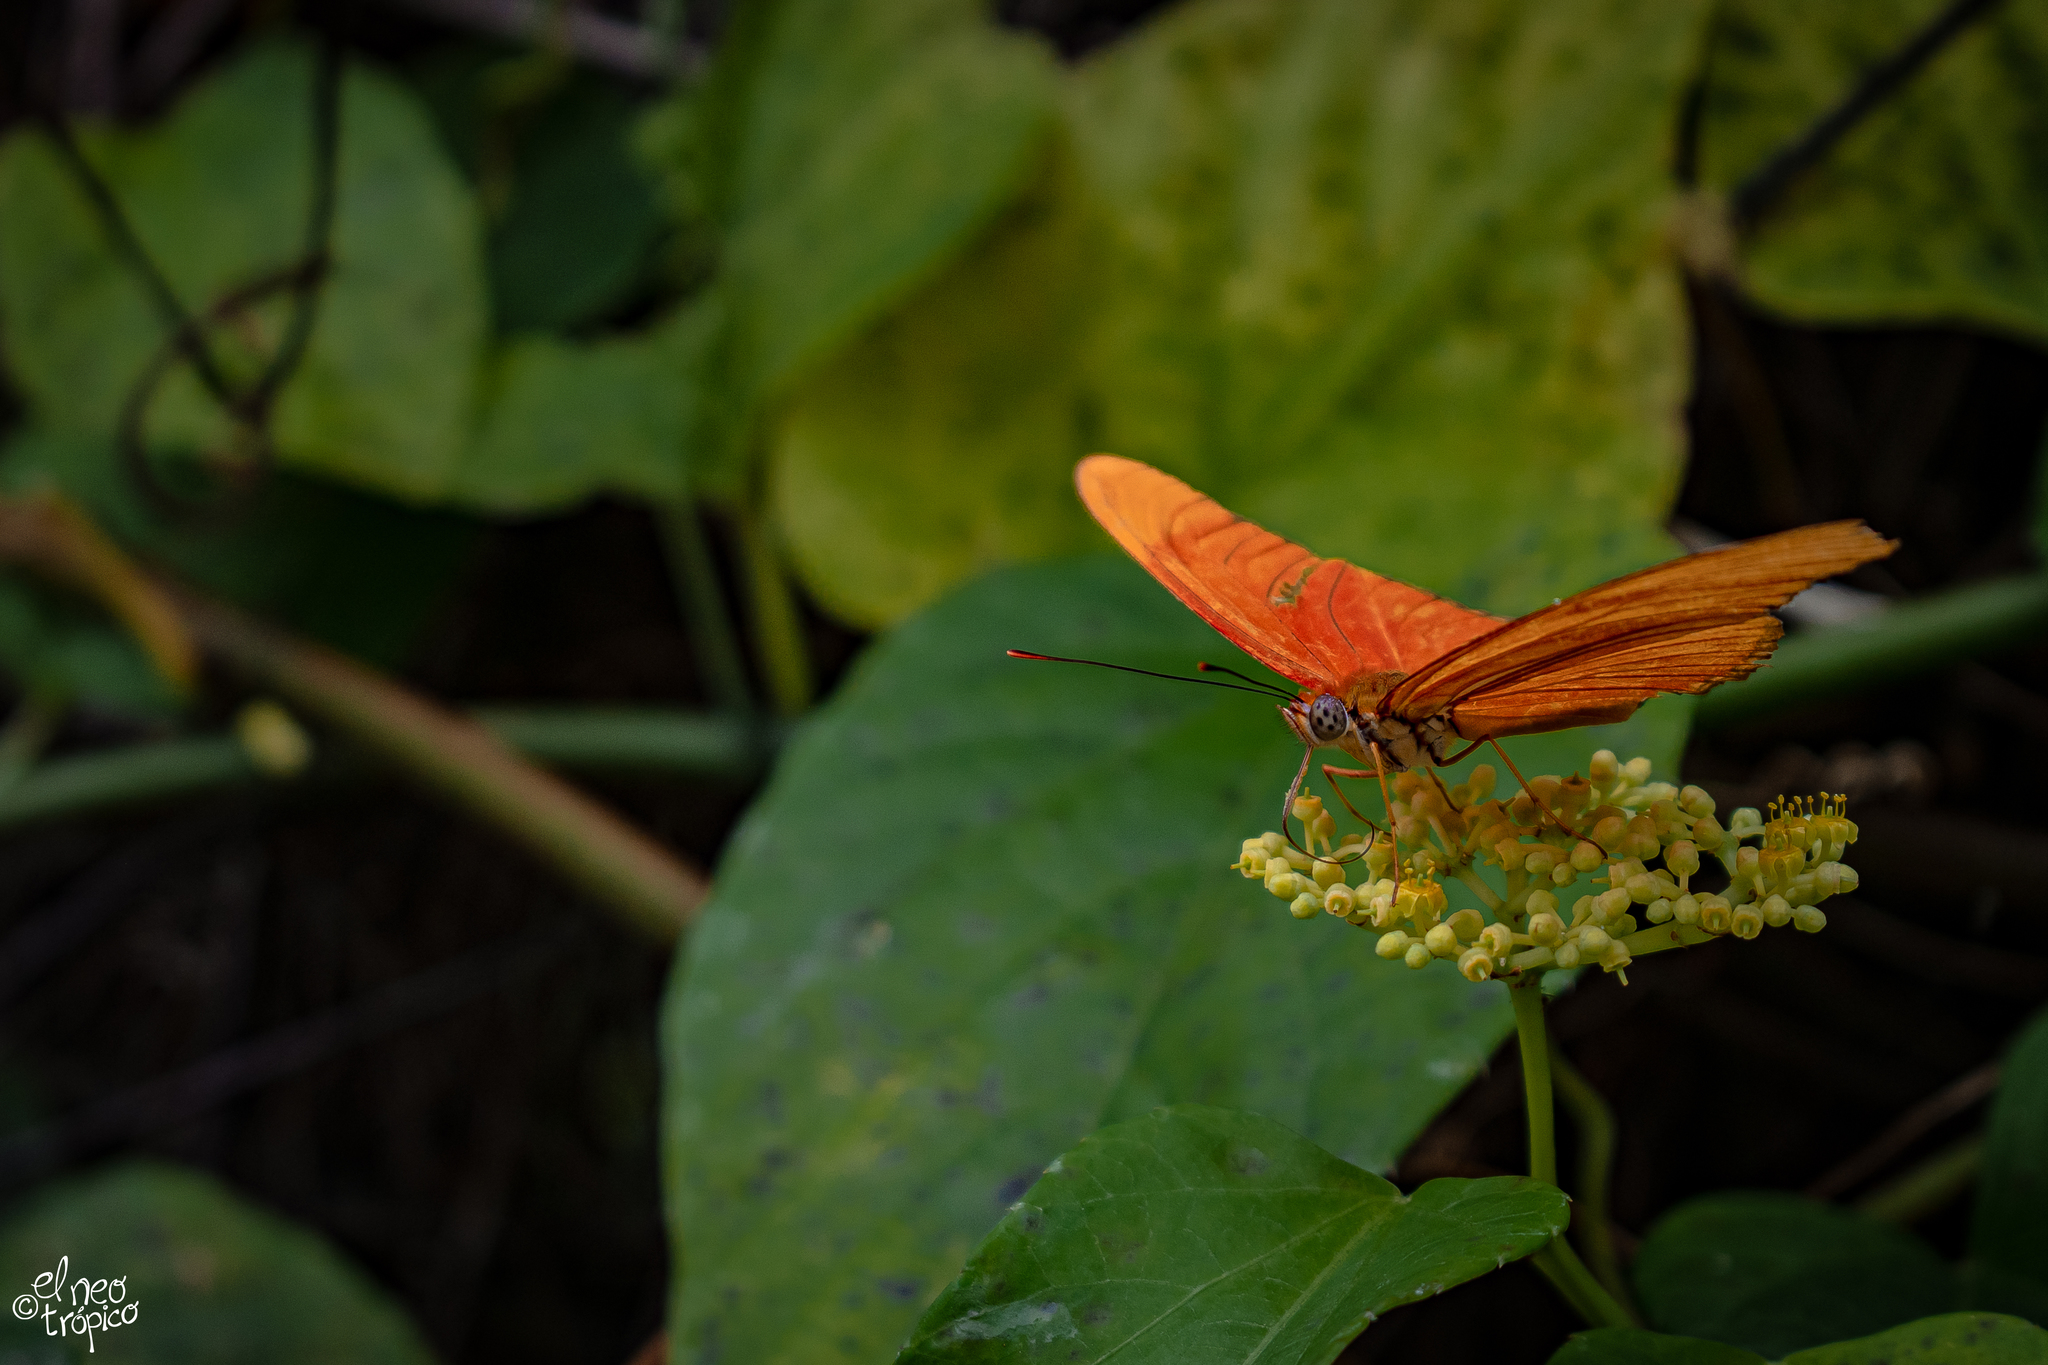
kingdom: Animalia
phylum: Arthropoda
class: Insecta
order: Lepidoptera
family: Nymphalidae
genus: Dryas
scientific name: Dryas iulia
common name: Flambeau
